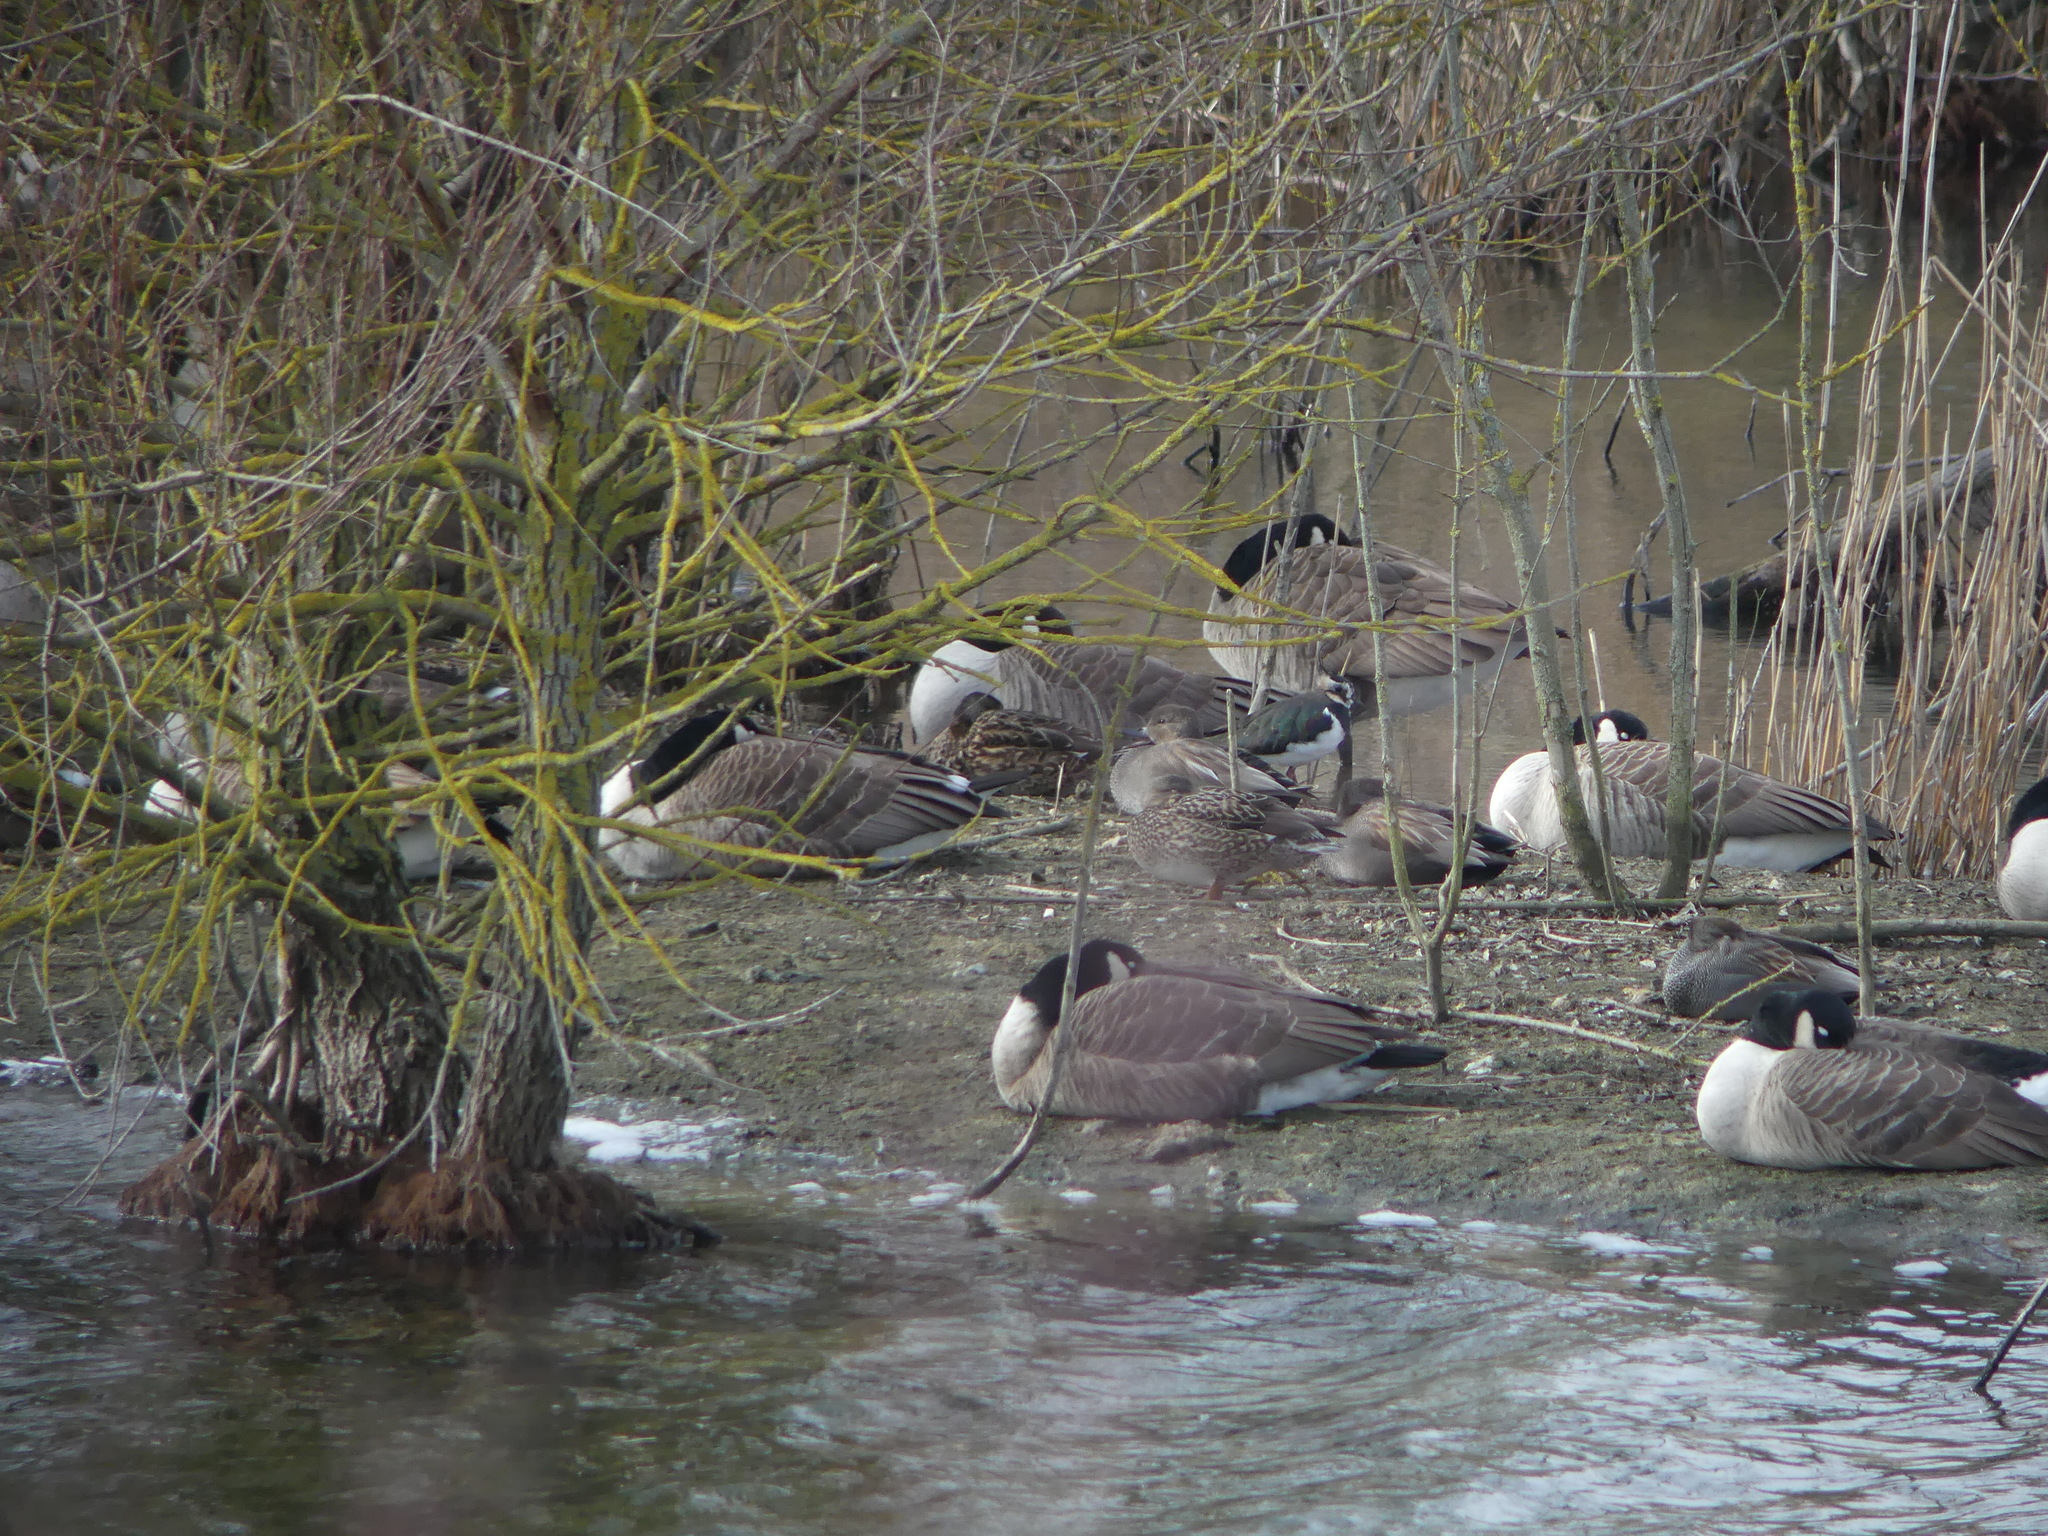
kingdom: Animalia
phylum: Chordata
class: Aves
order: Anseriformes
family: Anatidae
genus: Mareca
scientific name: Mareca strepera
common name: Gadwall
